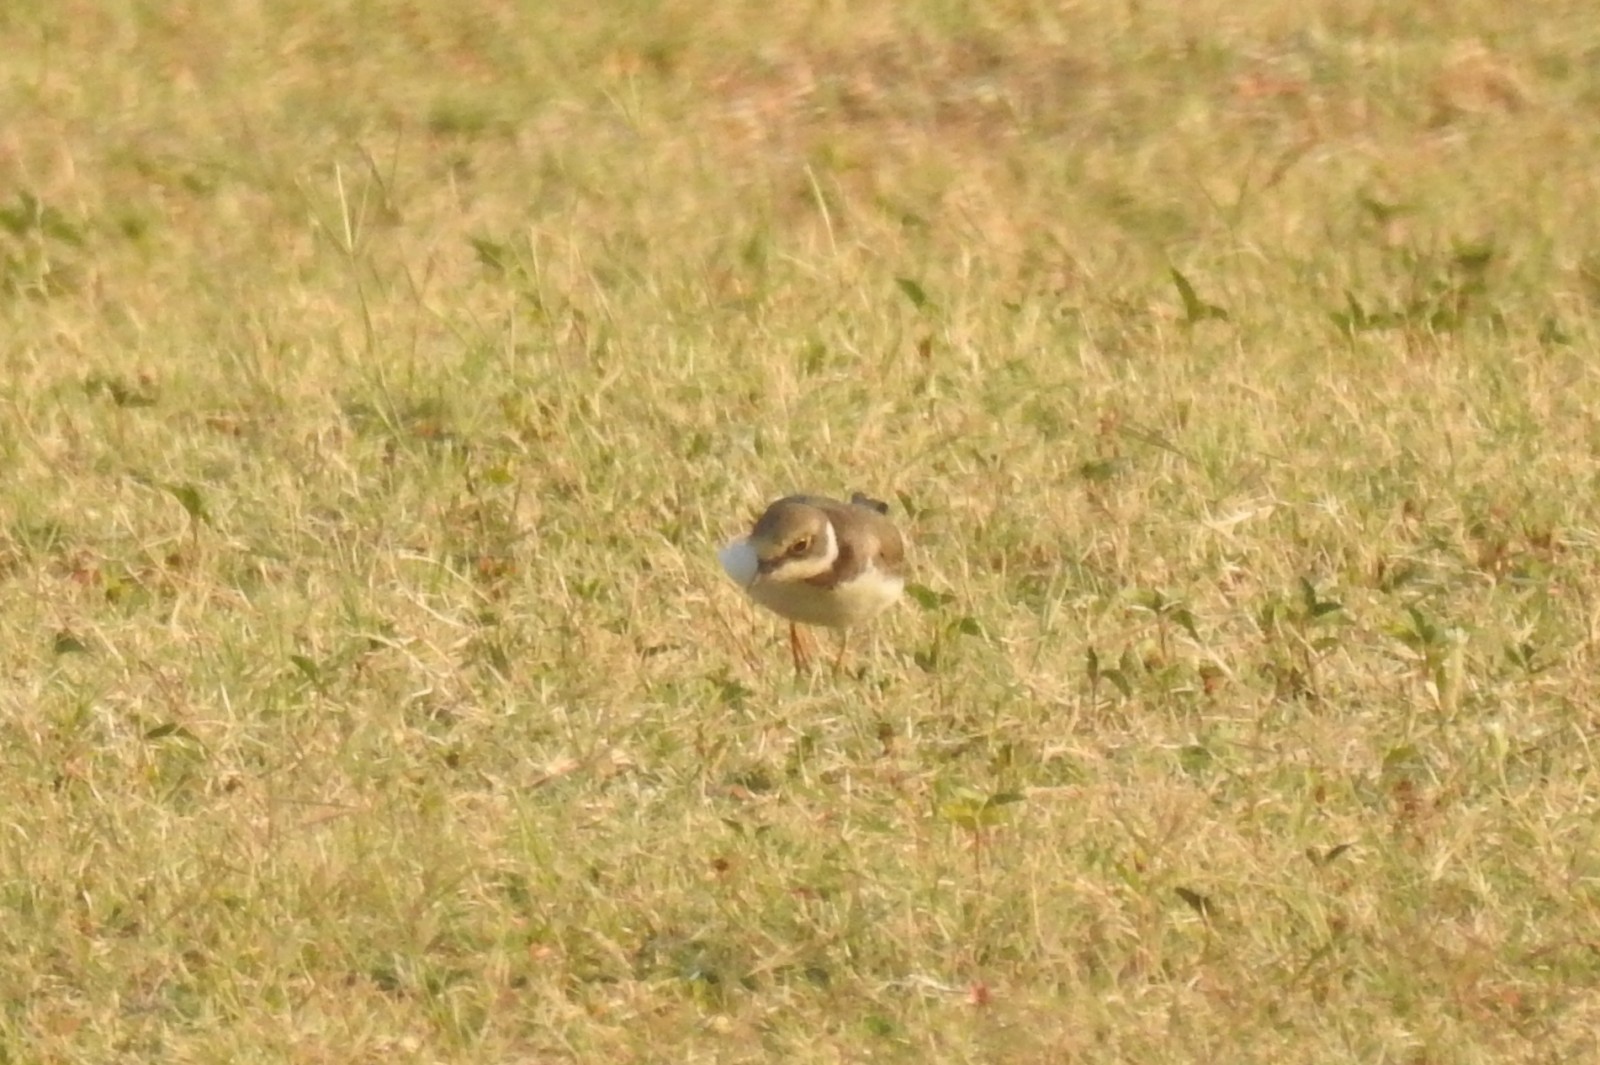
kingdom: Animalia
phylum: Chordata
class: Aves
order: Charadriiformes
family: Charadriidae
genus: Charadrius
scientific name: Charadrius dubius
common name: Little ringed plover
